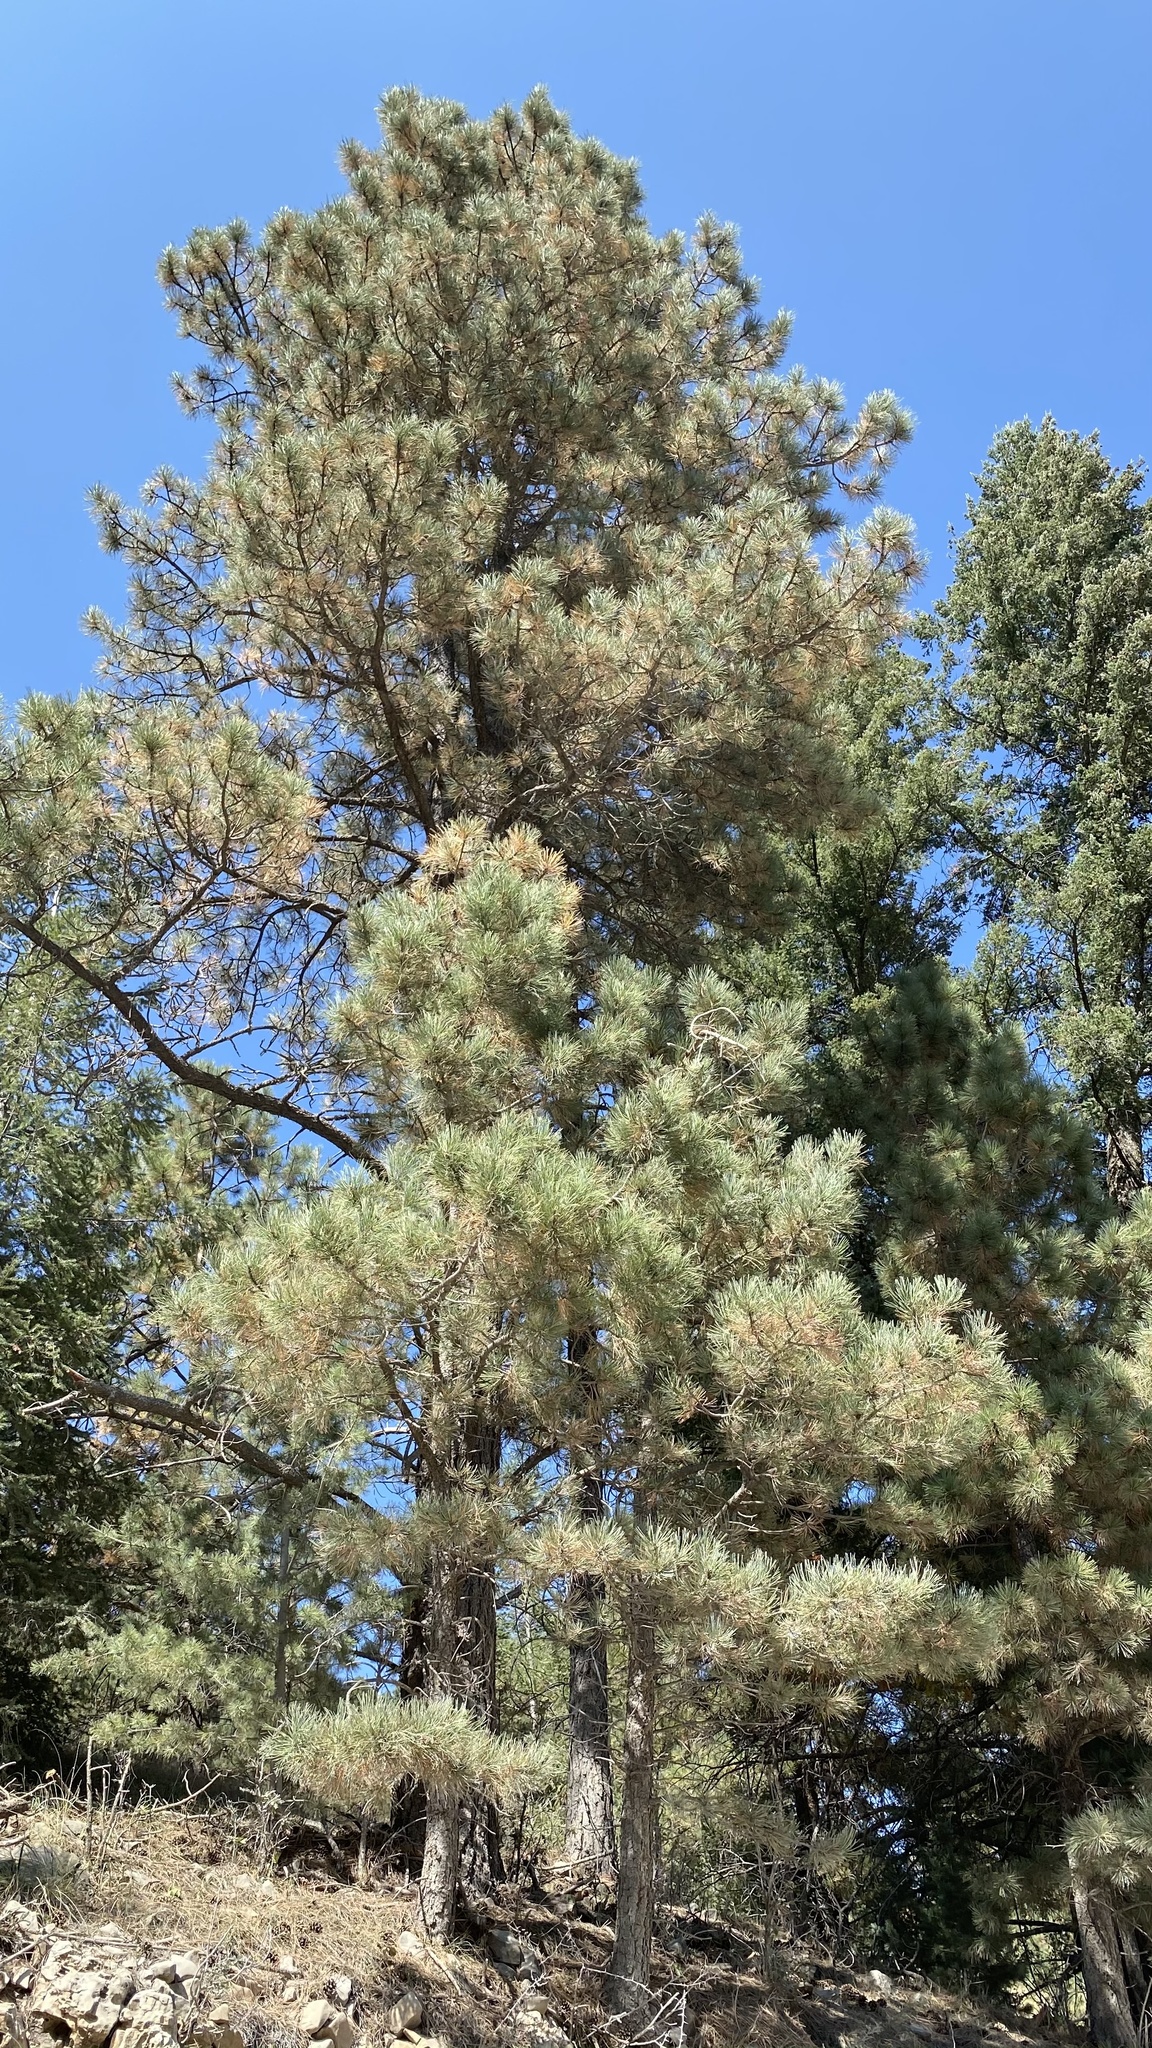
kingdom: Plantae
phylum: Tracheophyta
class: Pinopsida
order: Pinales
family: Pinaceae
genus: Pinus
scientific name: Pinus ponderosa
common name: Western yellow-pine
